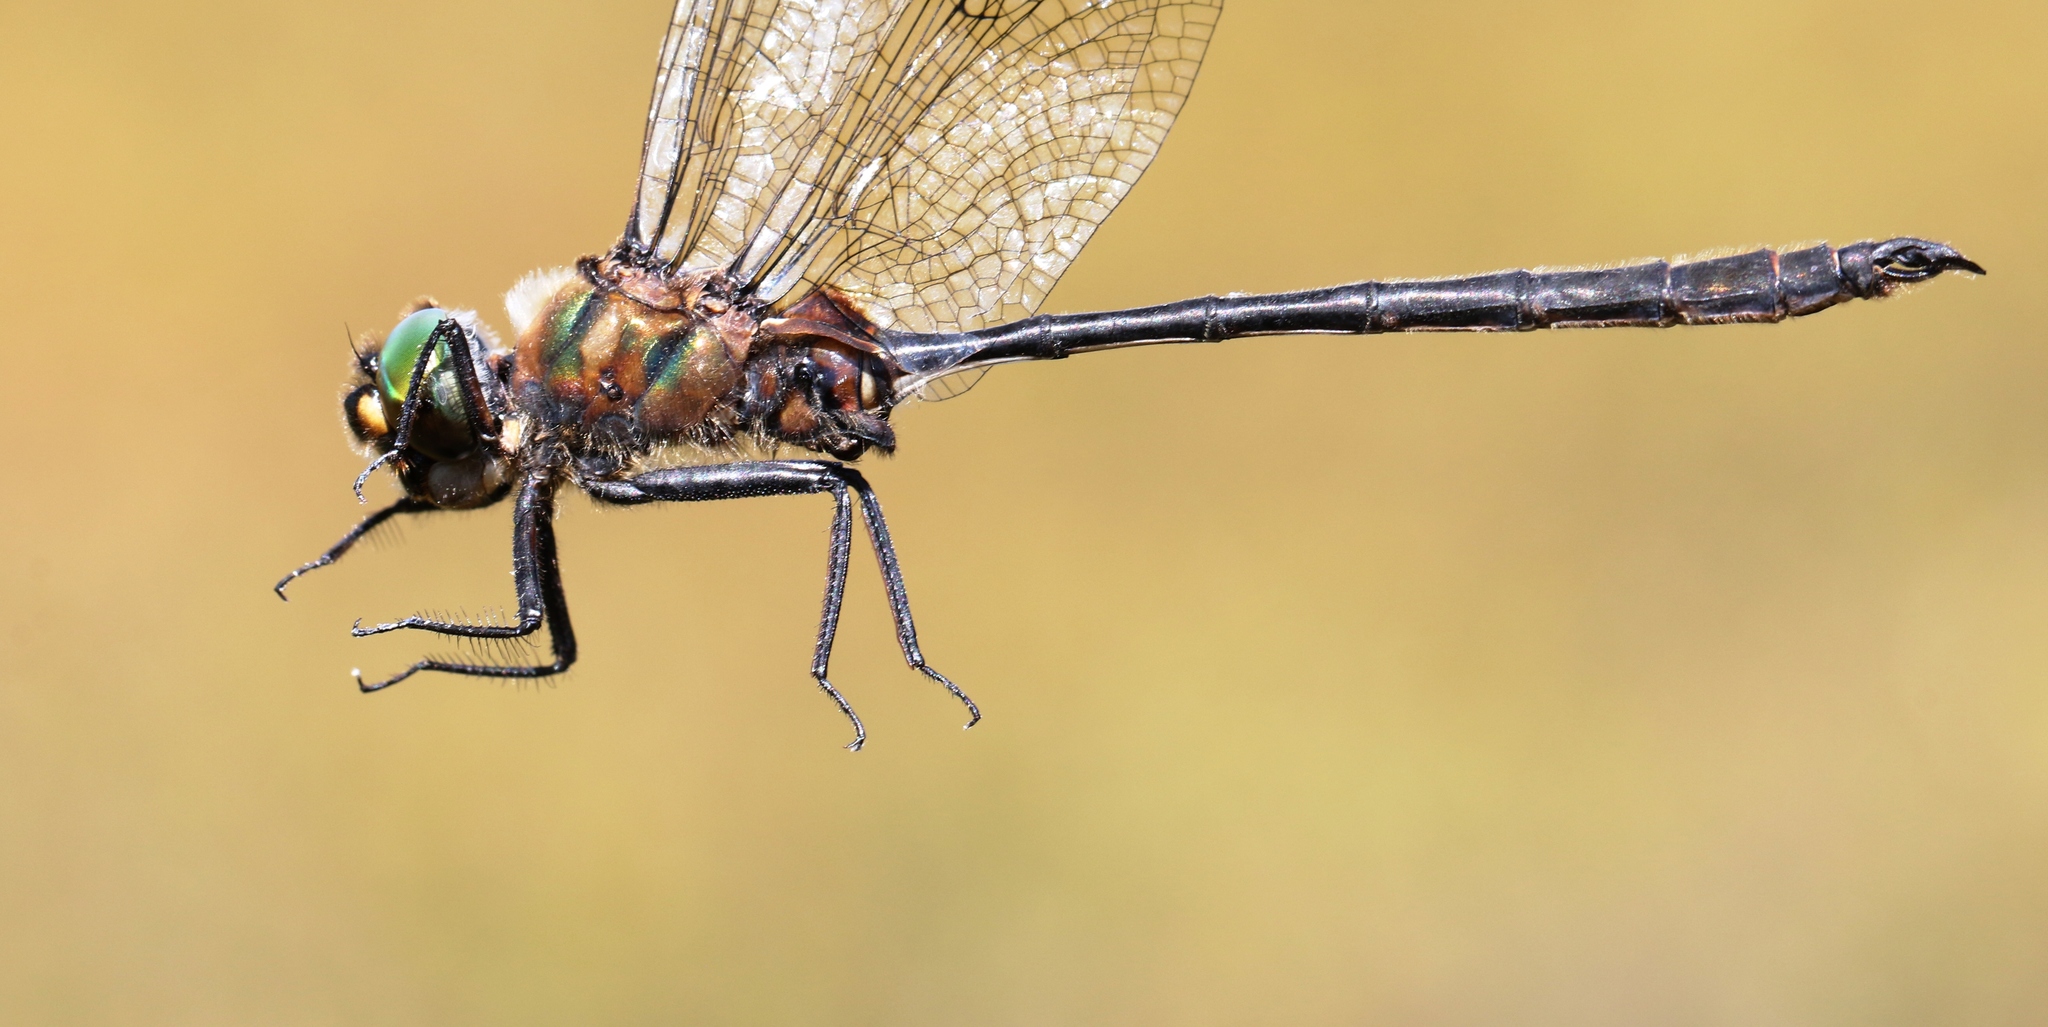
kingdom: Animalia
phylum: Arthropoda
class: Insecta
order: Odonata
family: Corduliidae
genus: Somatochlora
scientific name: Somatochlora franklini
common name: Delicate emerald
